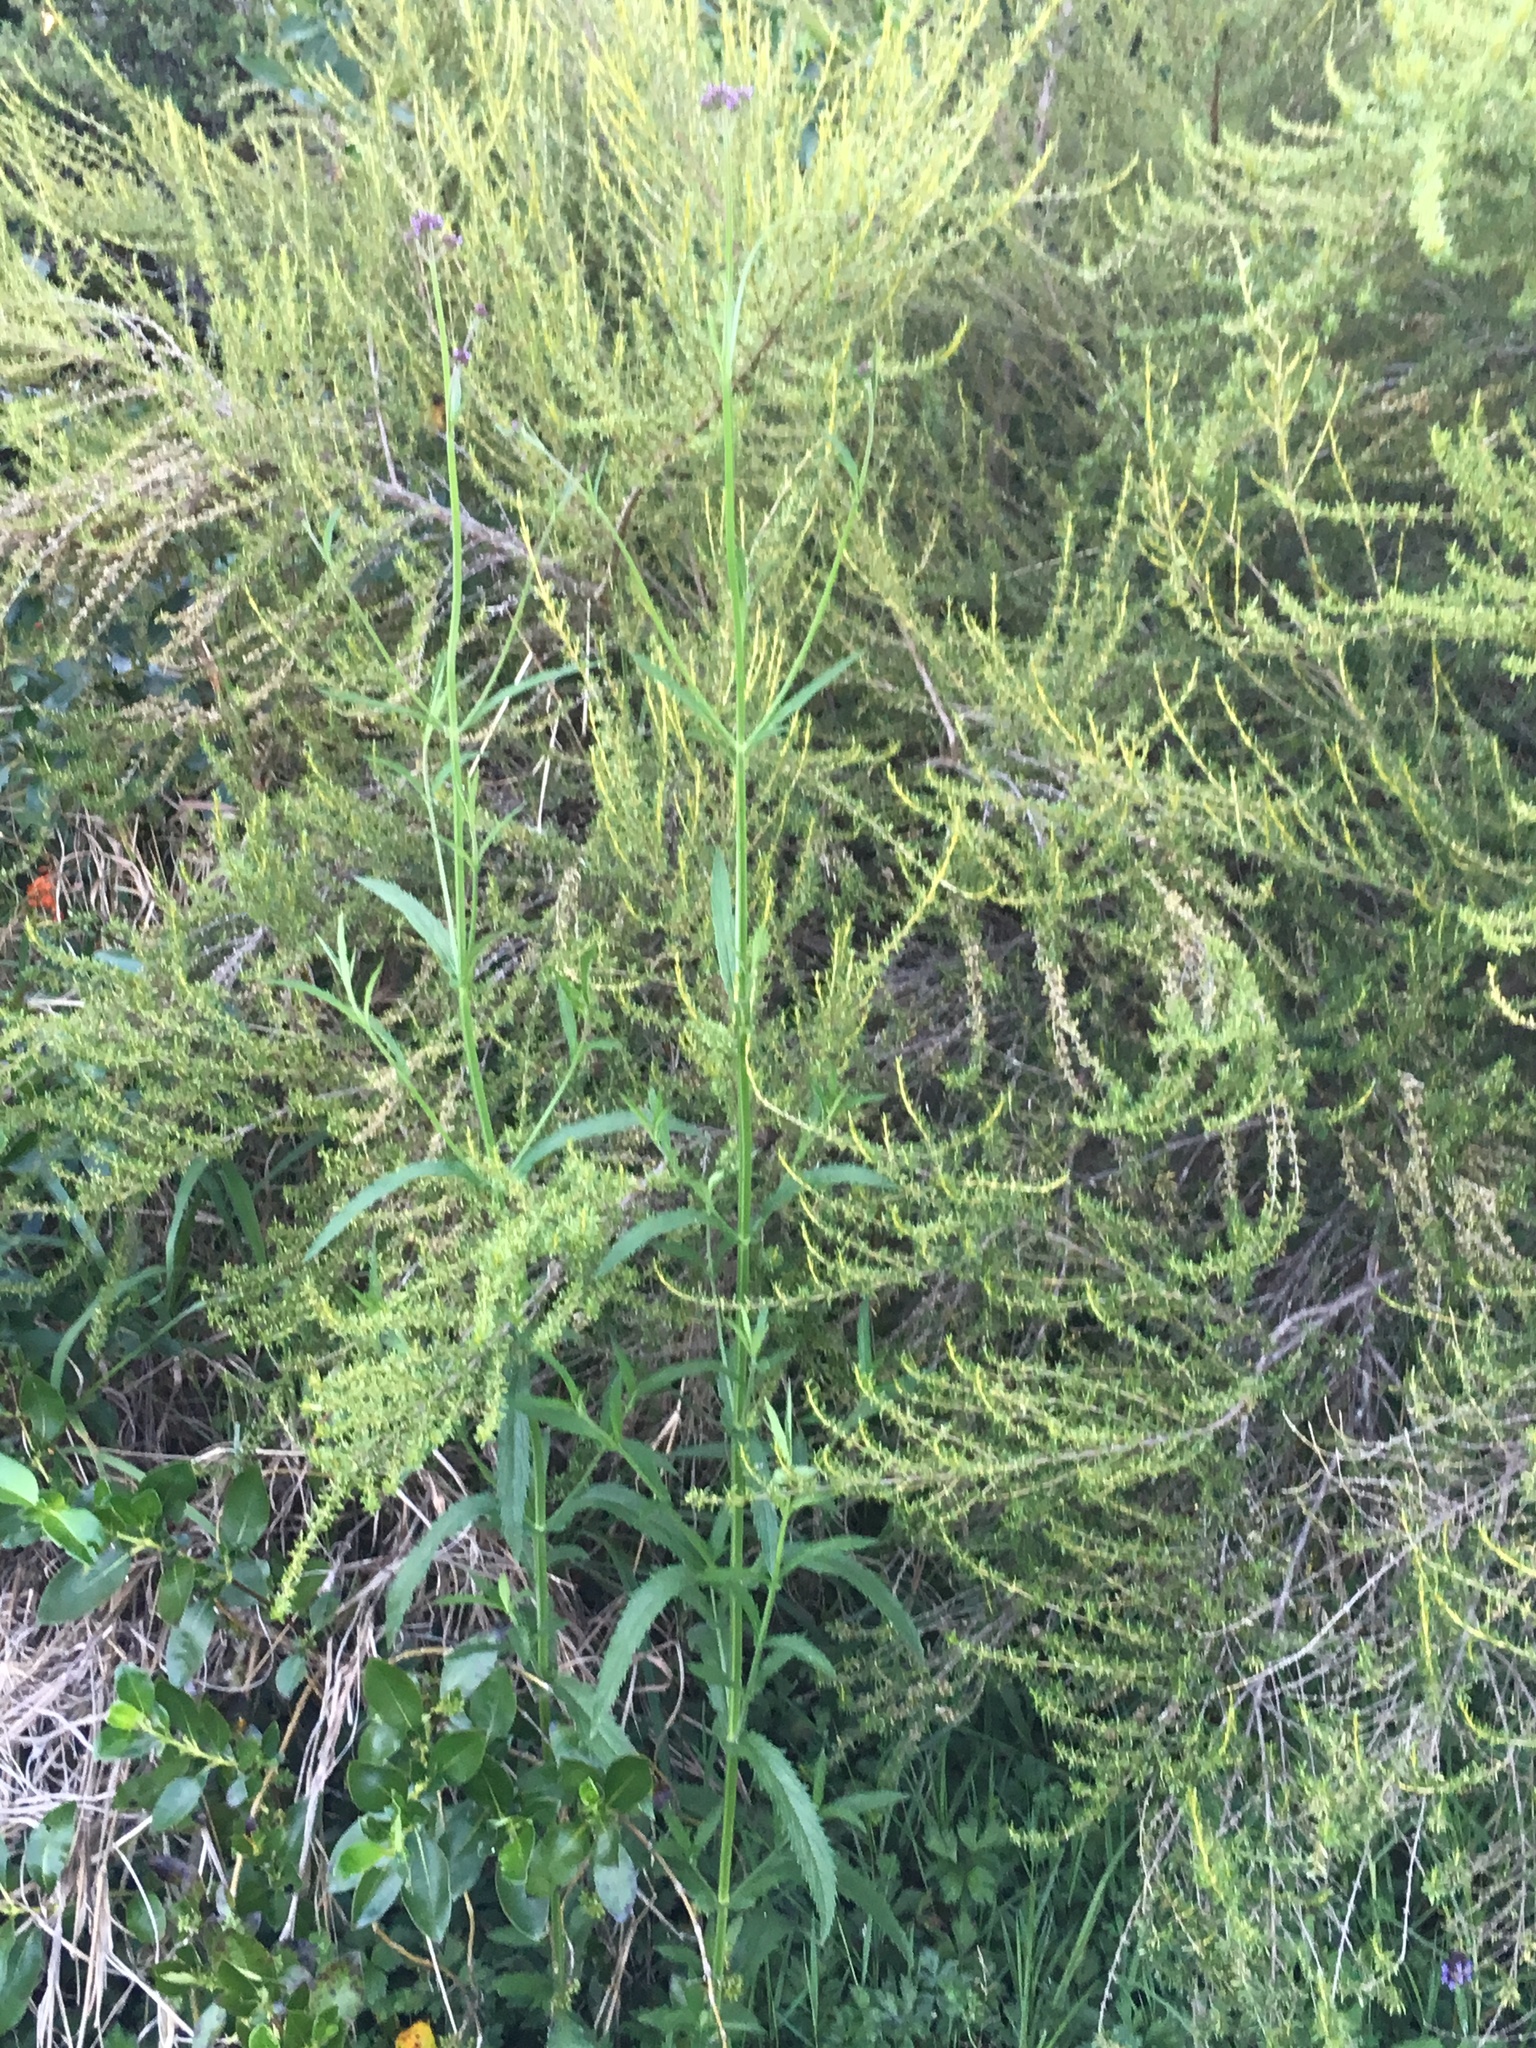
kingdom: Plantae
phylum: Tracheophyta
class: Magnoliopsida
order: Asterales
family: Asteraceae
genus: Olearia
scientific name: Olearia solandri
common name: Coastal daisybush
